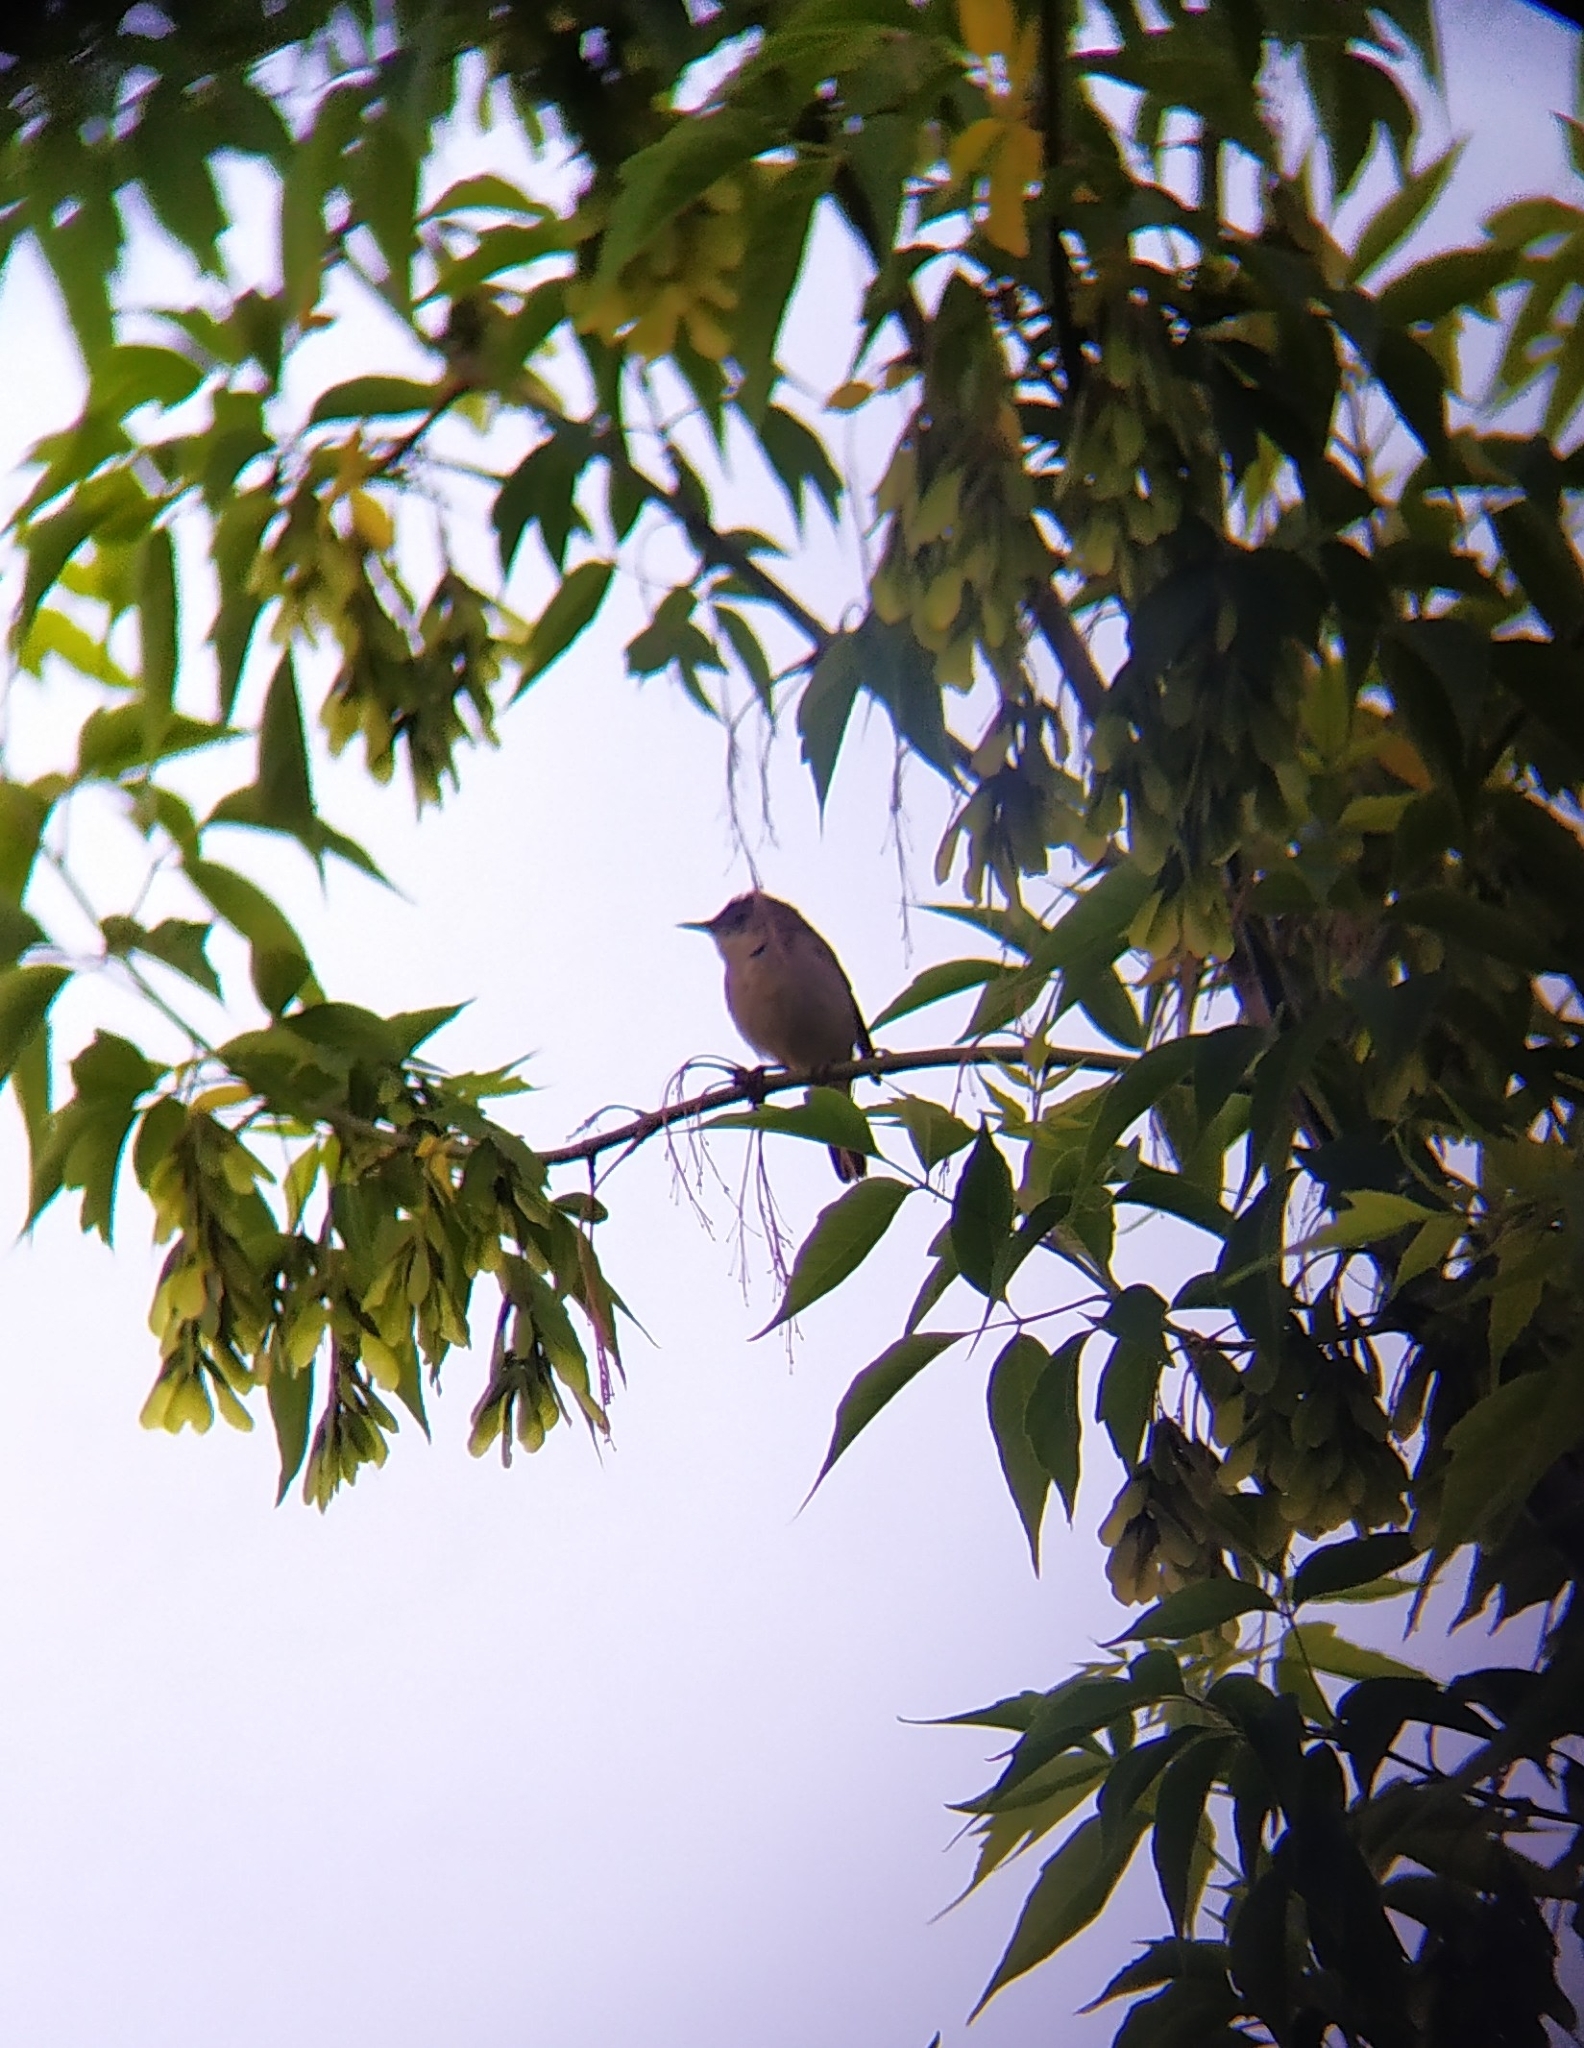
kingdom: Animalia
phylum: Chordata
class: Aves
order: Passeriformes
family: Acrocephalidae
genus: Acrocephalus
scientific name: Acrocephalus dumetorum
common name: Blyth's reed warbler
